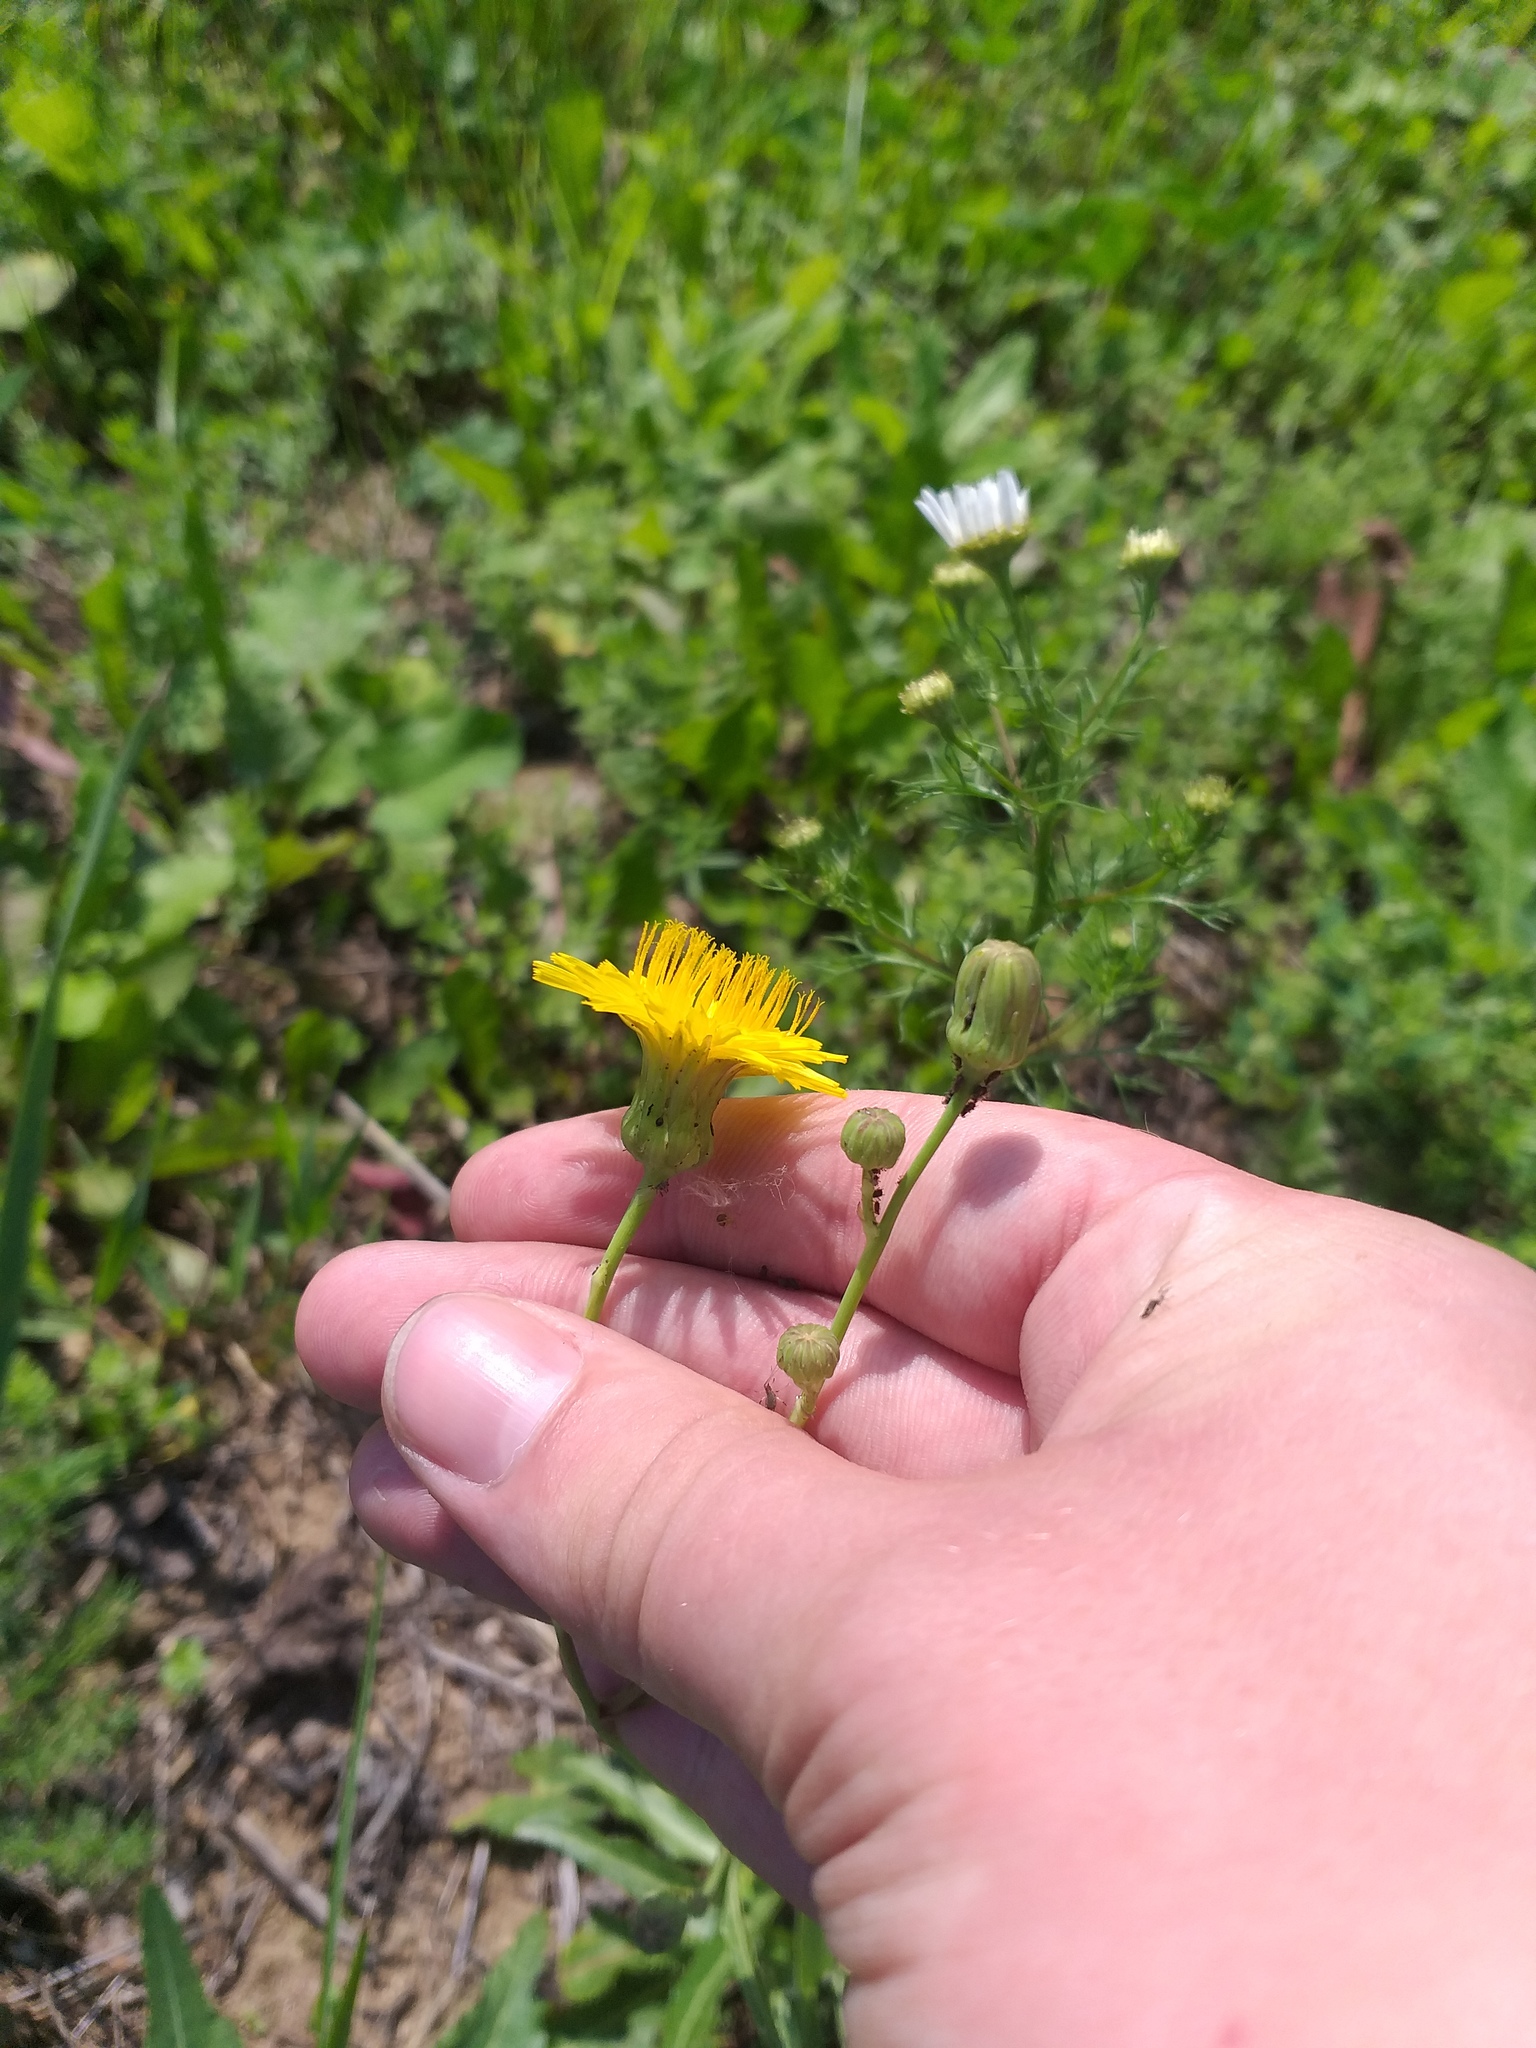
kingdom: Plantae
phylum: Tracheophyta
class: Magnoliopsida
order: Asterales
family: Asteraceae
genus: Sonchus
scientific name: Sonchus arvensis
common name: Perennial sow-thistle
